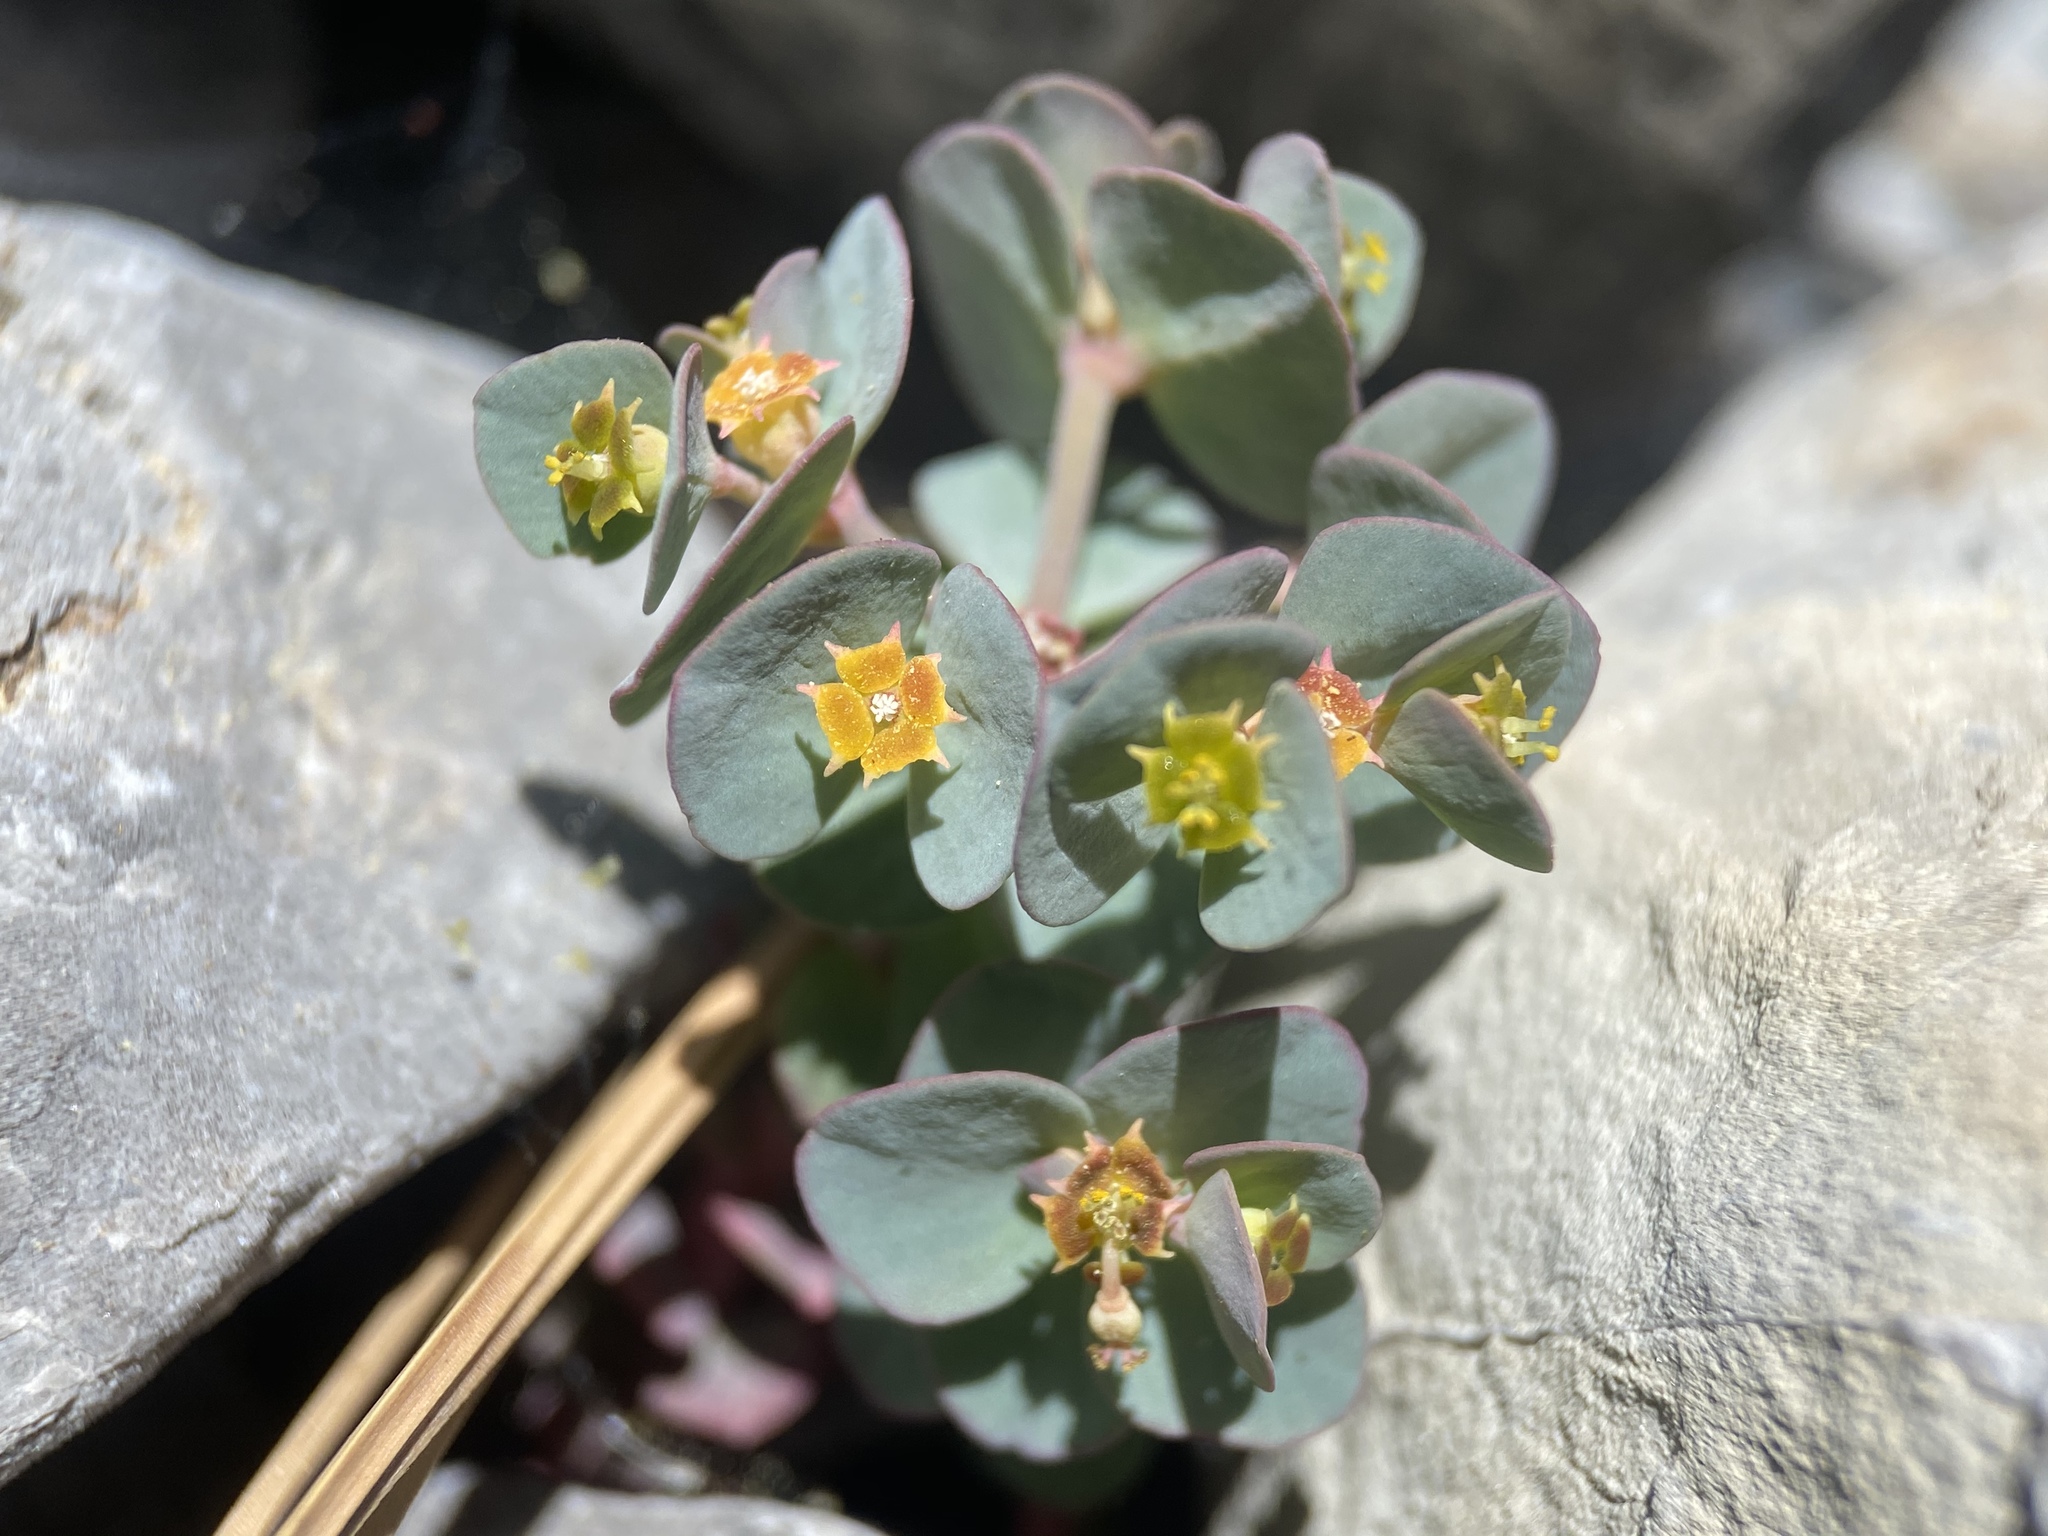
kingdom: Plantae
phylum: Tracheophyta
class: Magnoliopsida
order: Malpighiales
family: Euphorbiaceae
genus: Euphorbia
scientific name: Euphorbia brachycera
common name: Shorthorn spurge
